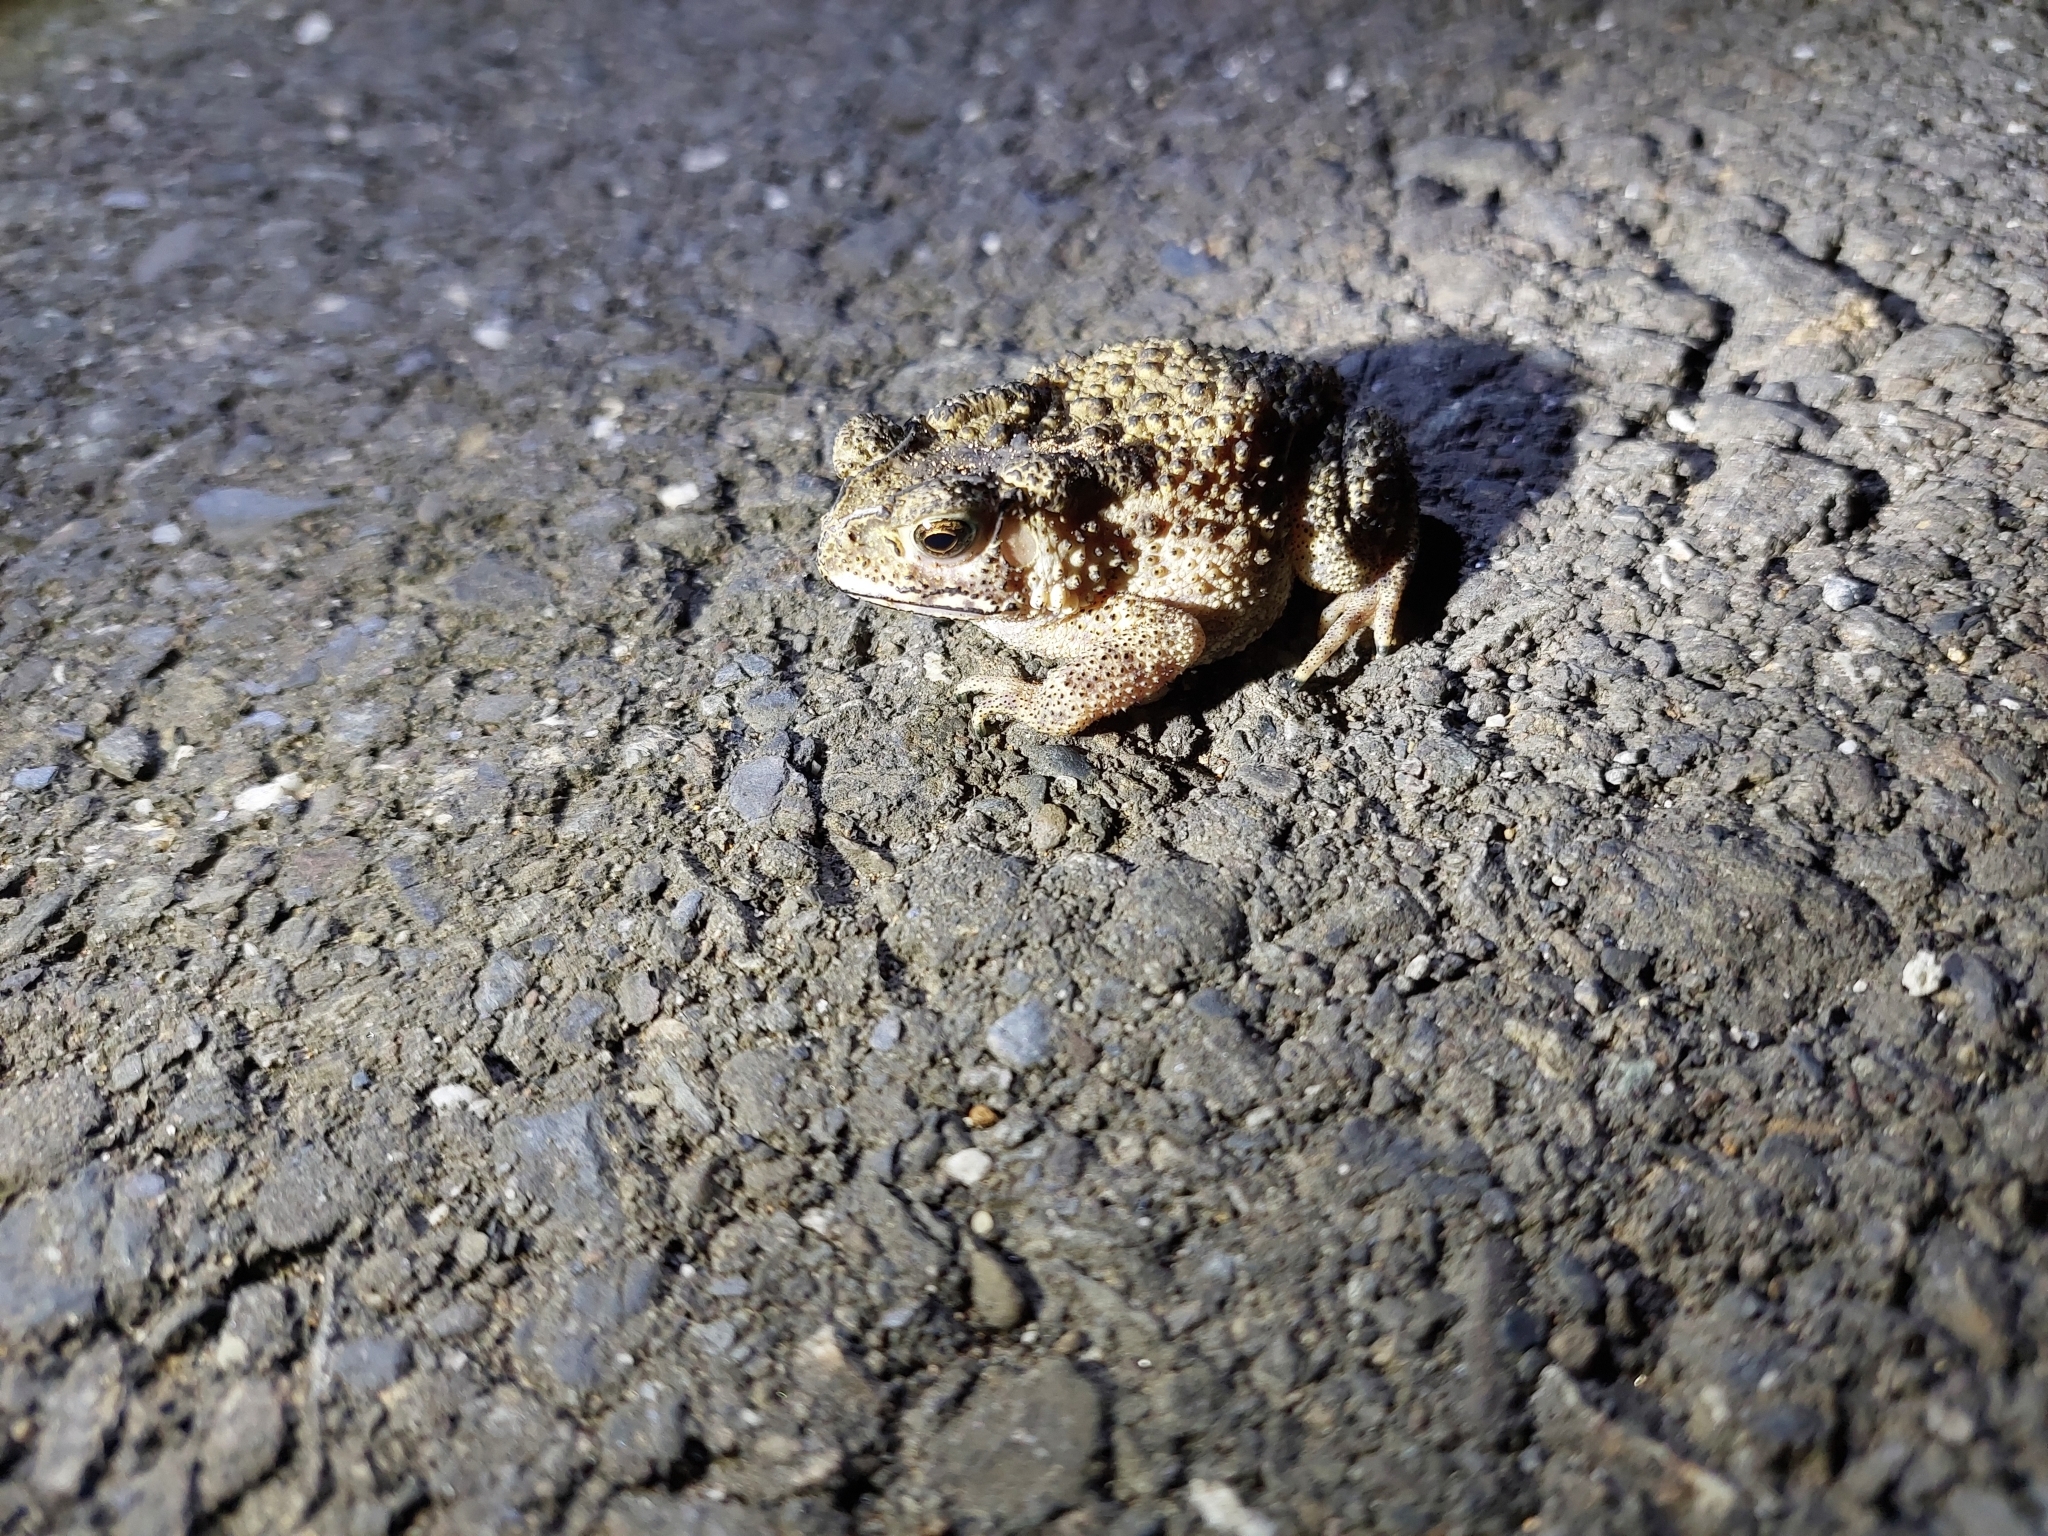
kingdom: Animalia
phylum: Chordata
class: Amphibia
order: Anura
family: Bufonidae
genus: Duttaphrynus
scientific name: Duttaphrynus melanostictus
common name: Common sunda toad
